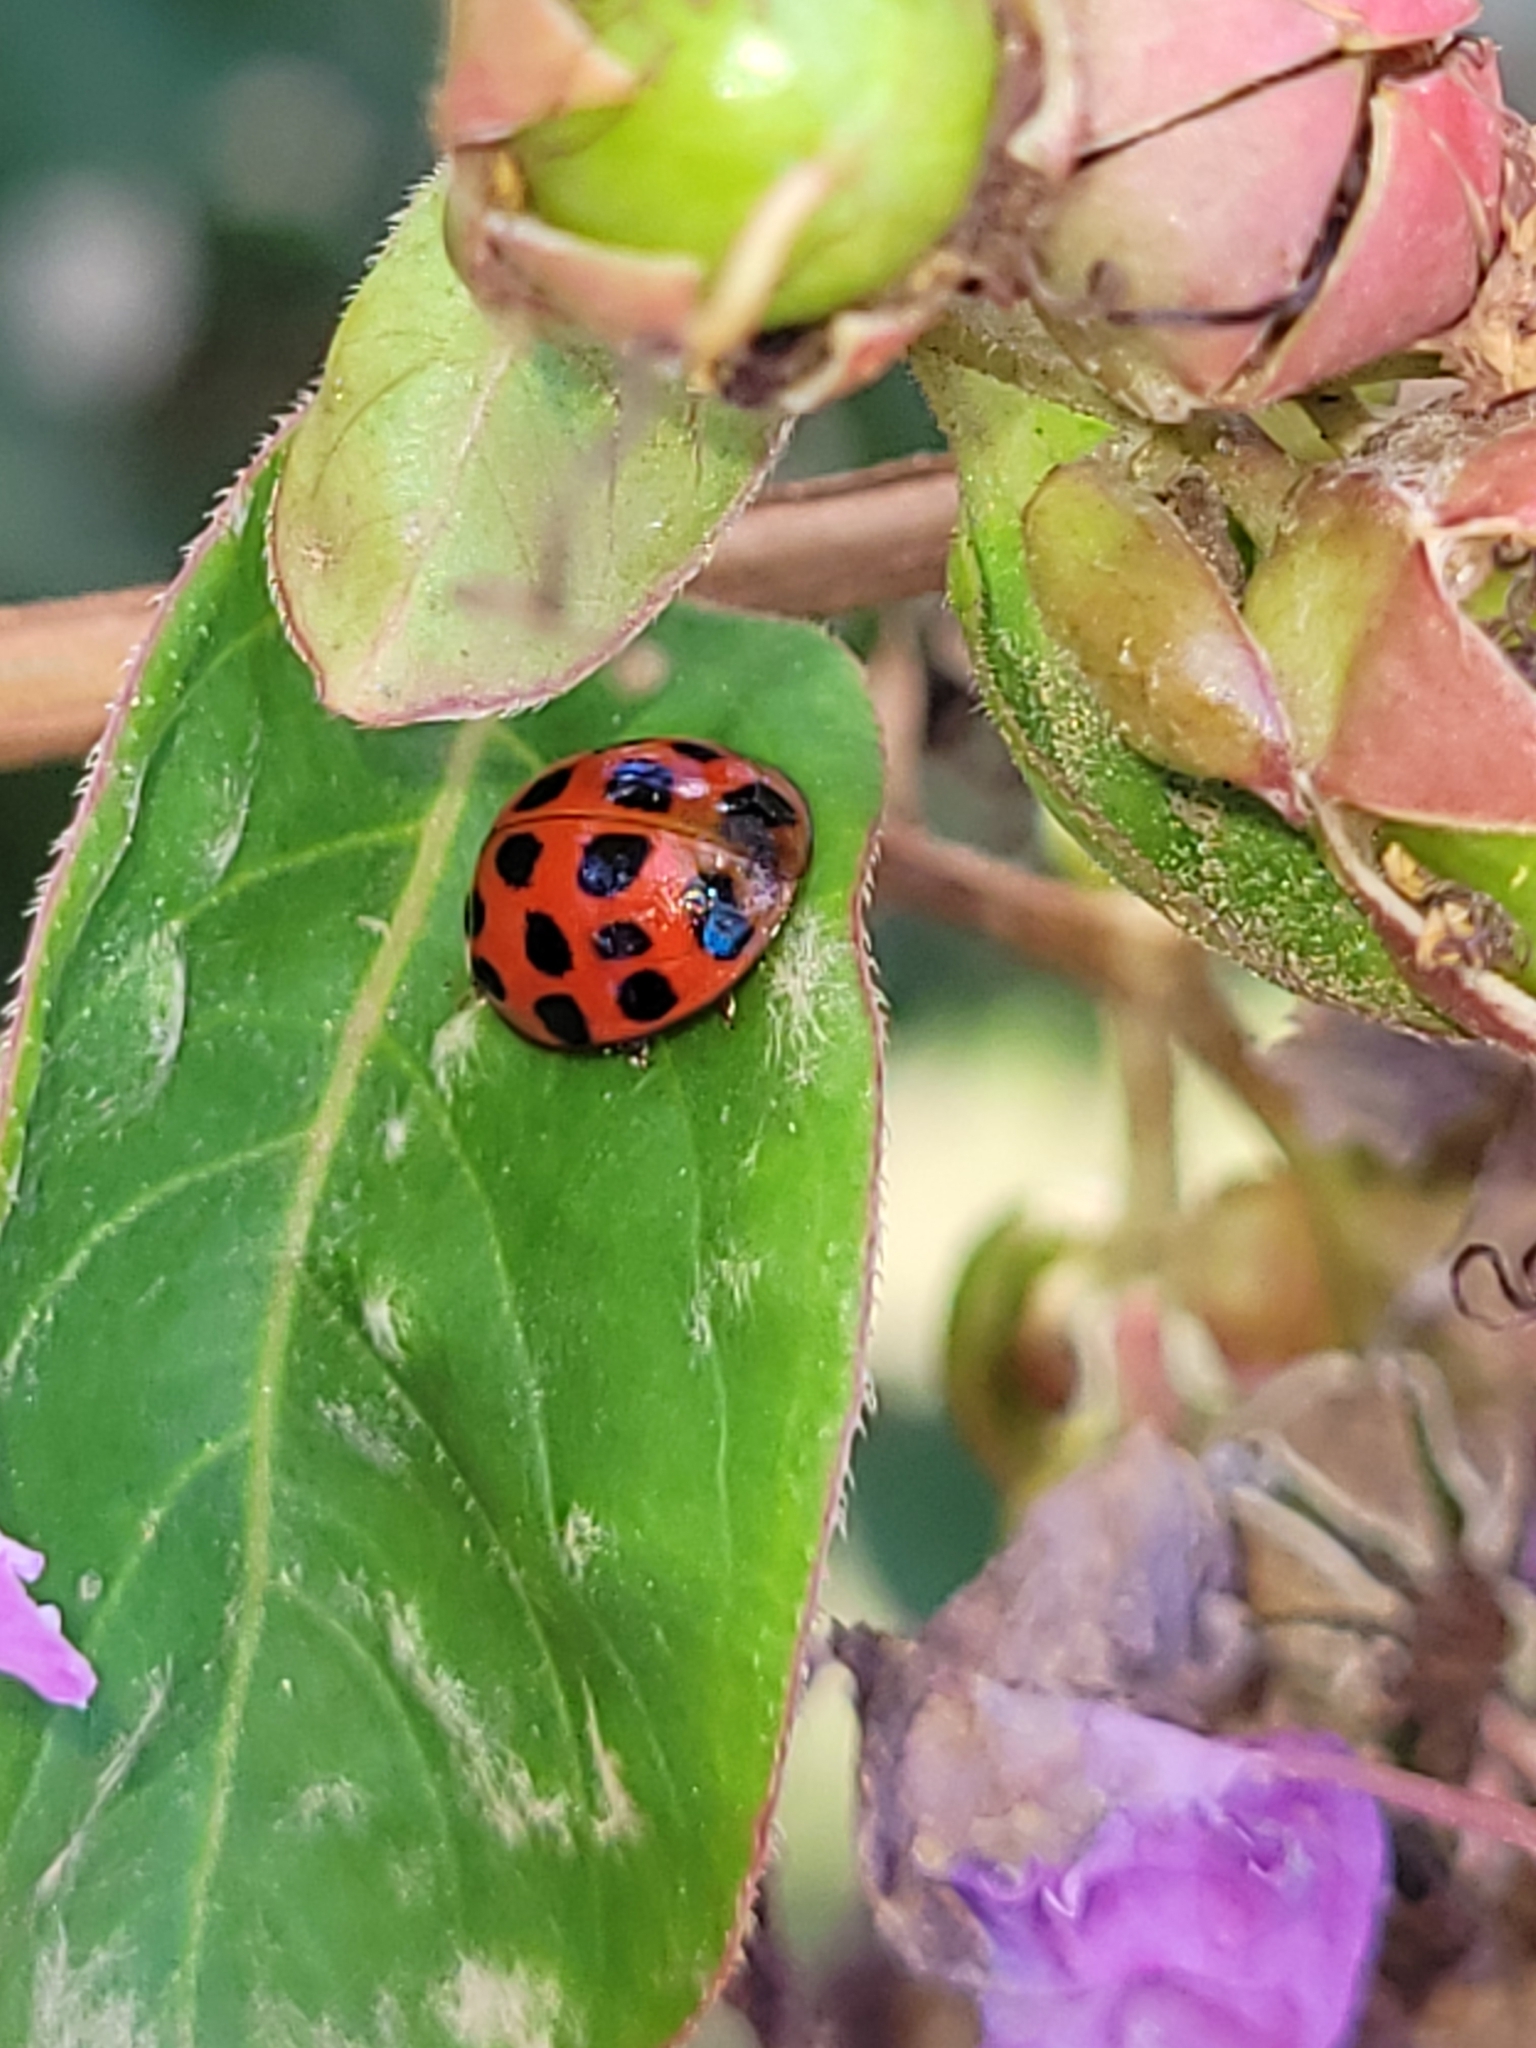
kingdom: Animalia
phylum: Arthropoda
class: Insecta
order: Coleoptera
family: Coccinellidae
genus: Harmonia
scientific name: Harmonia axyridis
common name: Harlequin ladybird
